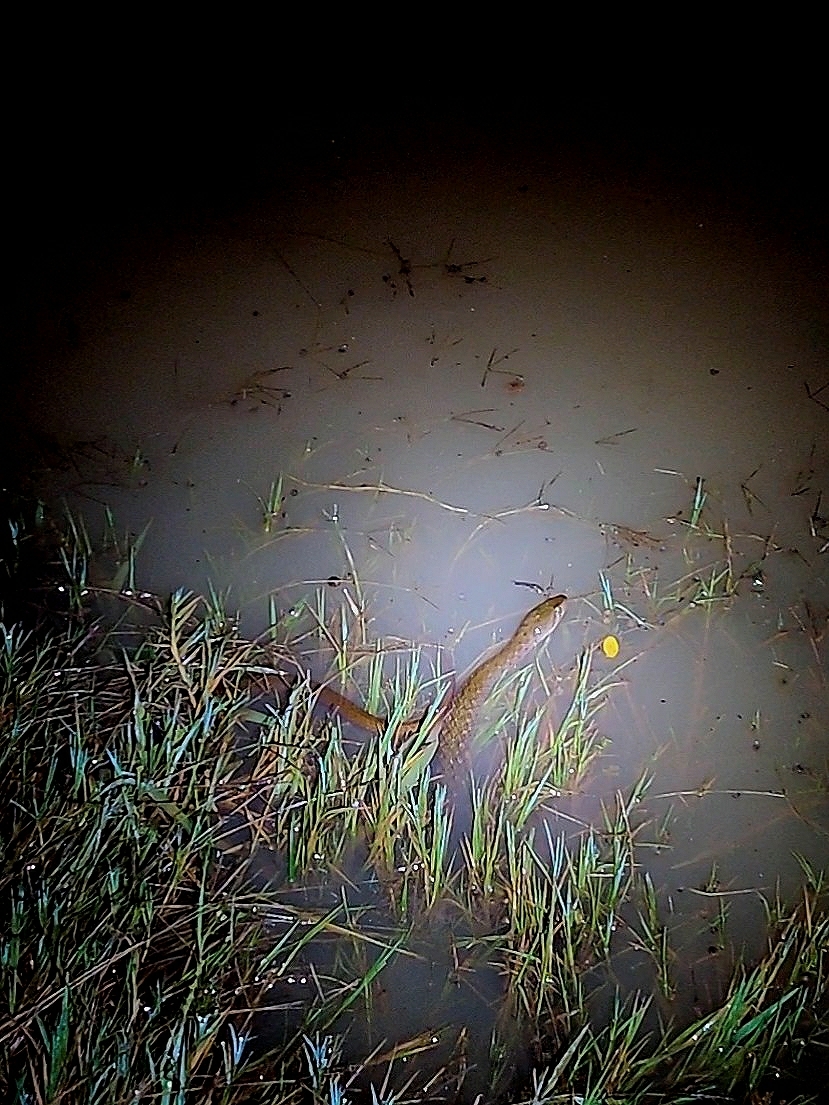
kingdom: Animalia
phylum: Chordata
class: Squamata
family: Colubridae
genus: Fowlea
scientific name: Fowlea piscator
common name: Asiatic water snake
